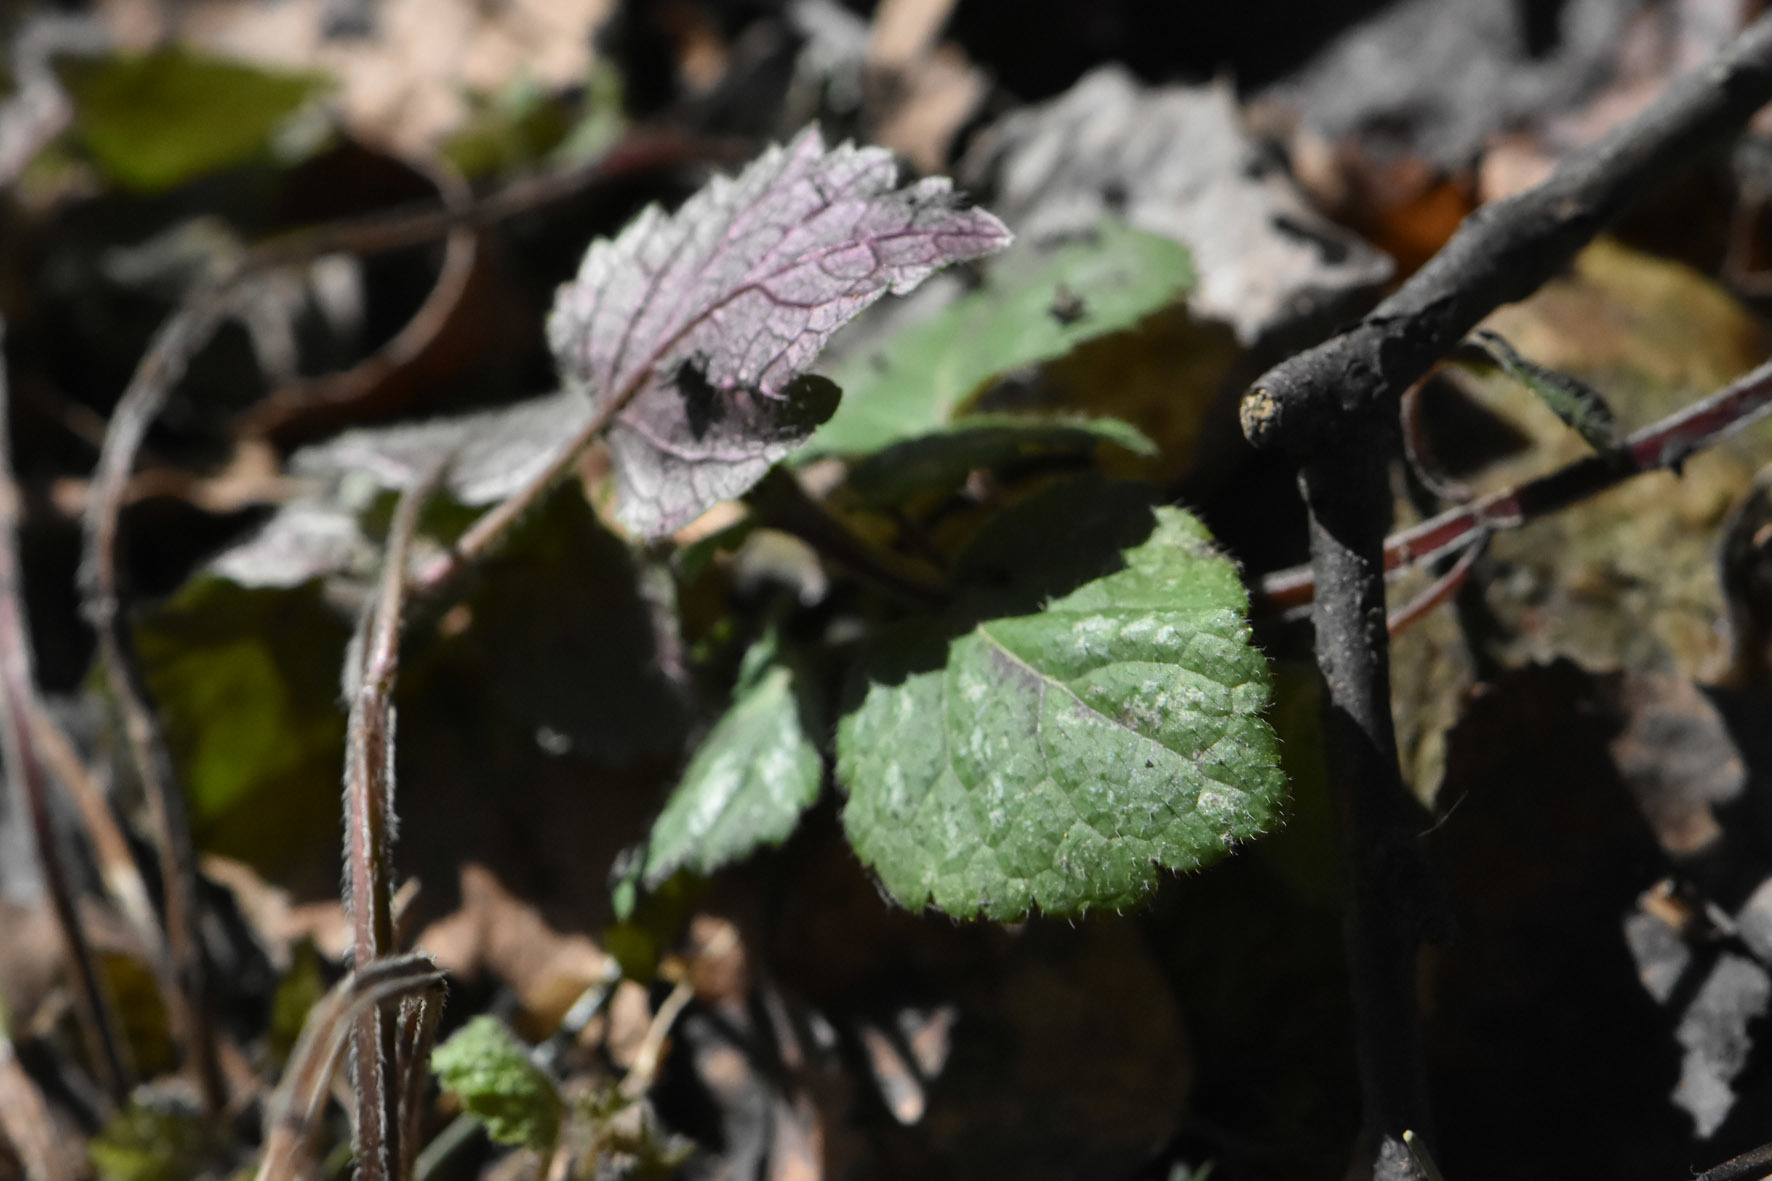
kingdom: Plantae
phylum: Tracheophyta
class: Magnoliopsida
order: Lamiales
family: Lamiaceae
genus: Lamium
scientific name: Lamium galeobdolon
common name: Yellow archangel
